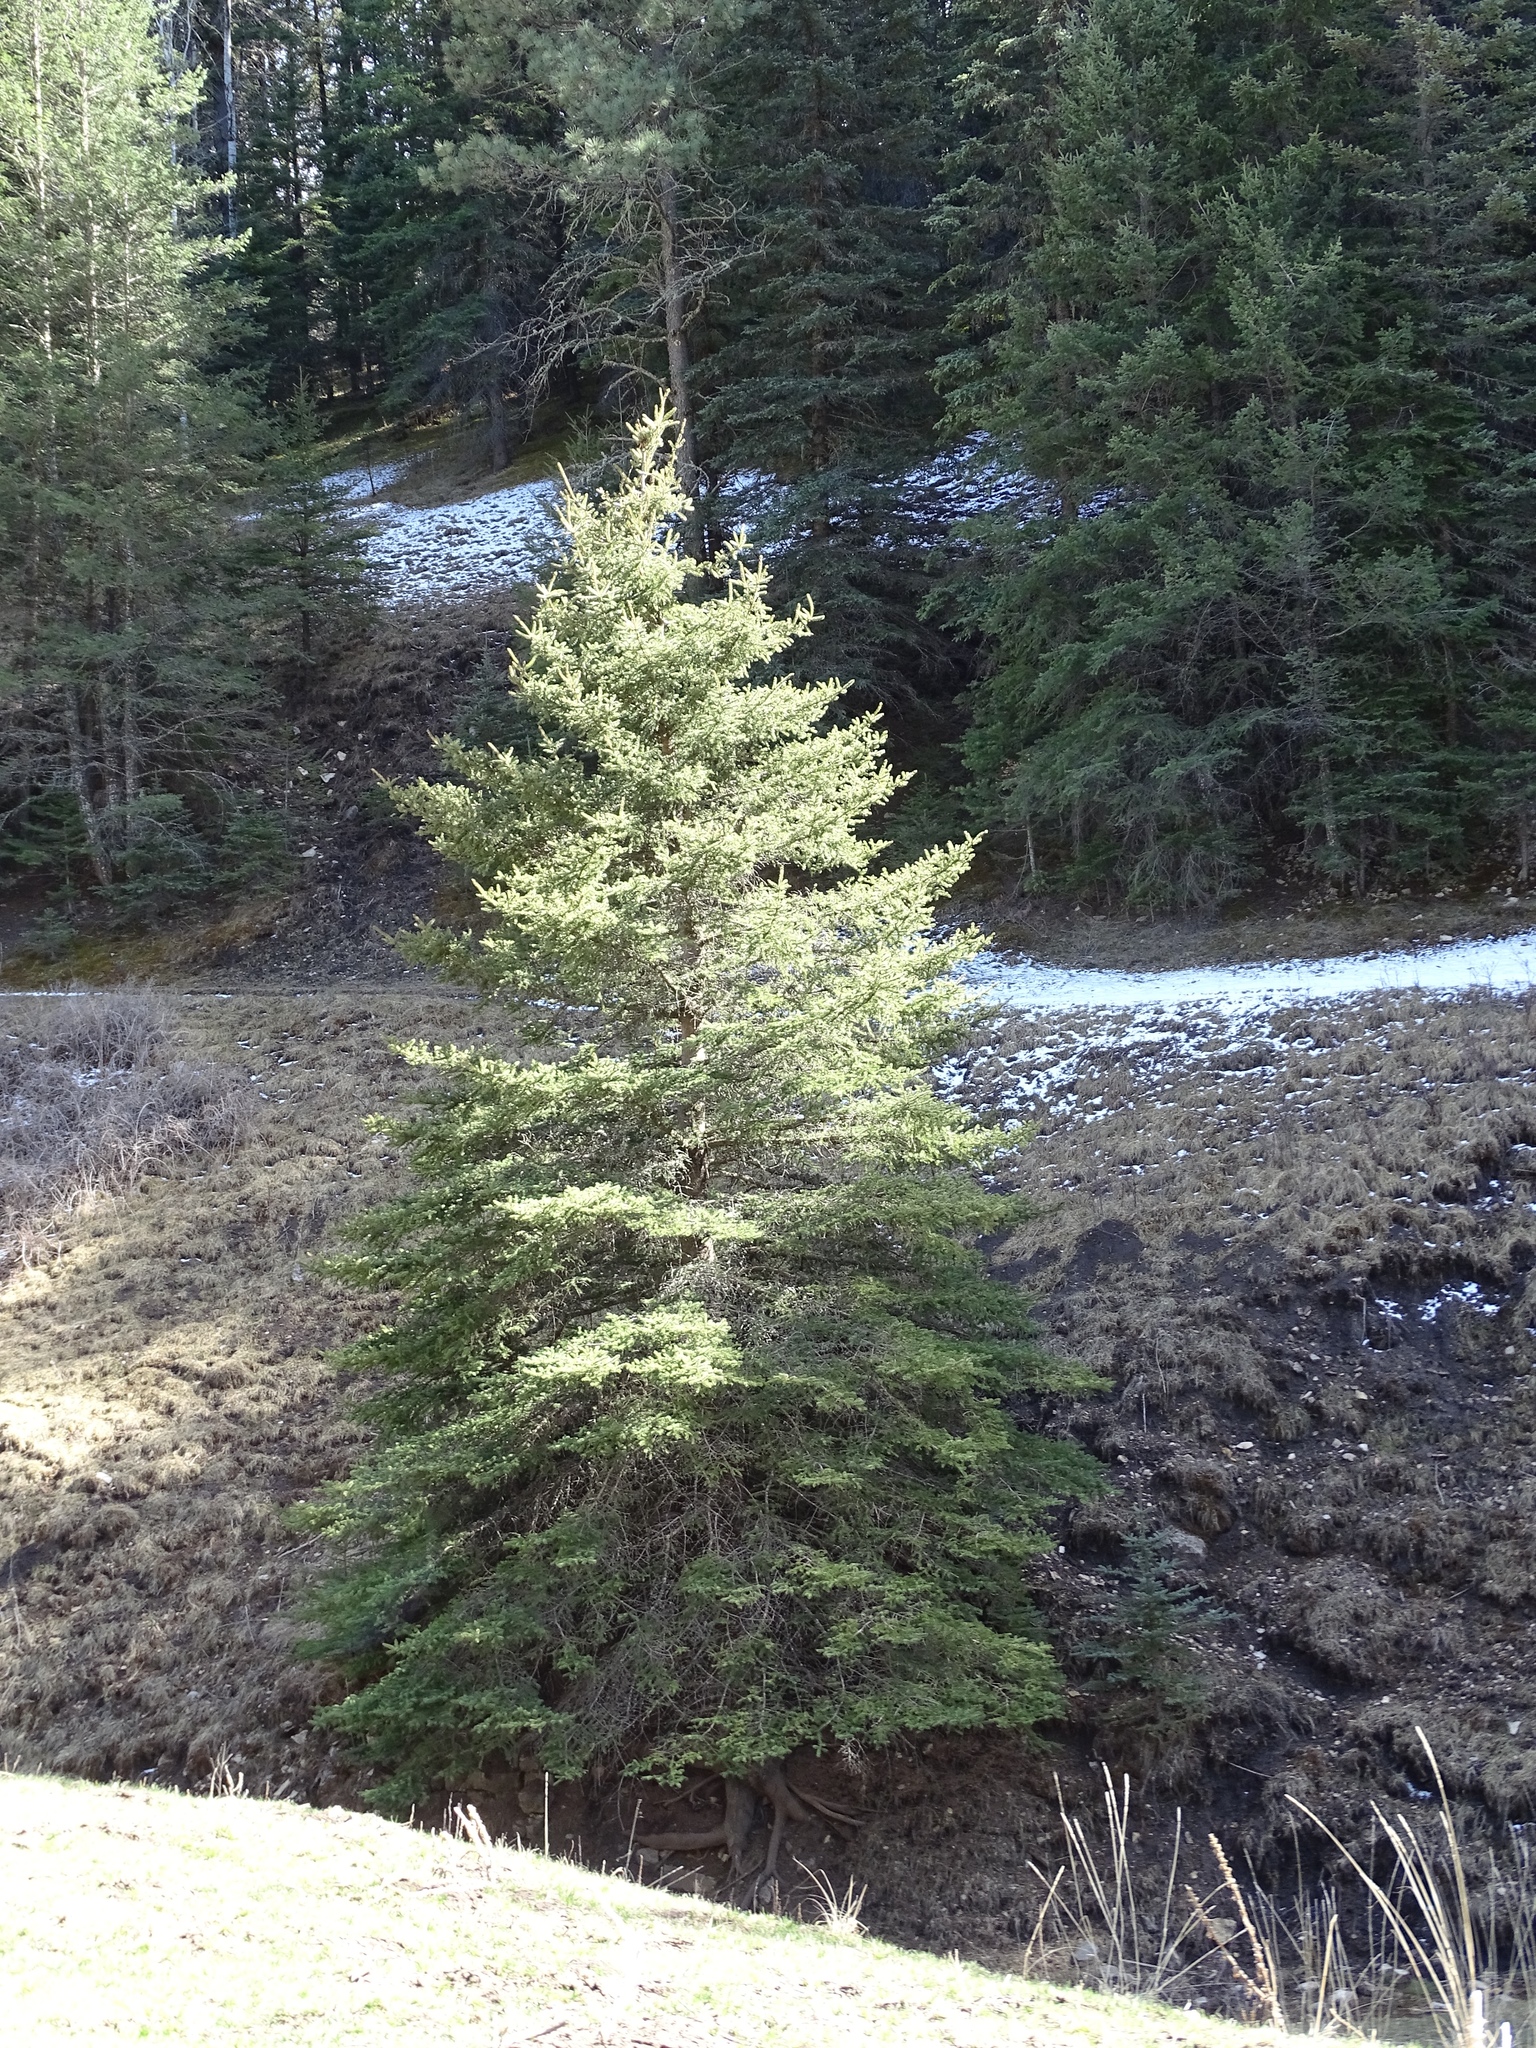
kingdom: Plantae
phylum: Tracheophyta
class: Pinopsida
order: Pinales
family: Pinaceae
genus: Picea
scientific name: Picea engelmannii
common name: Engelmann spruce
